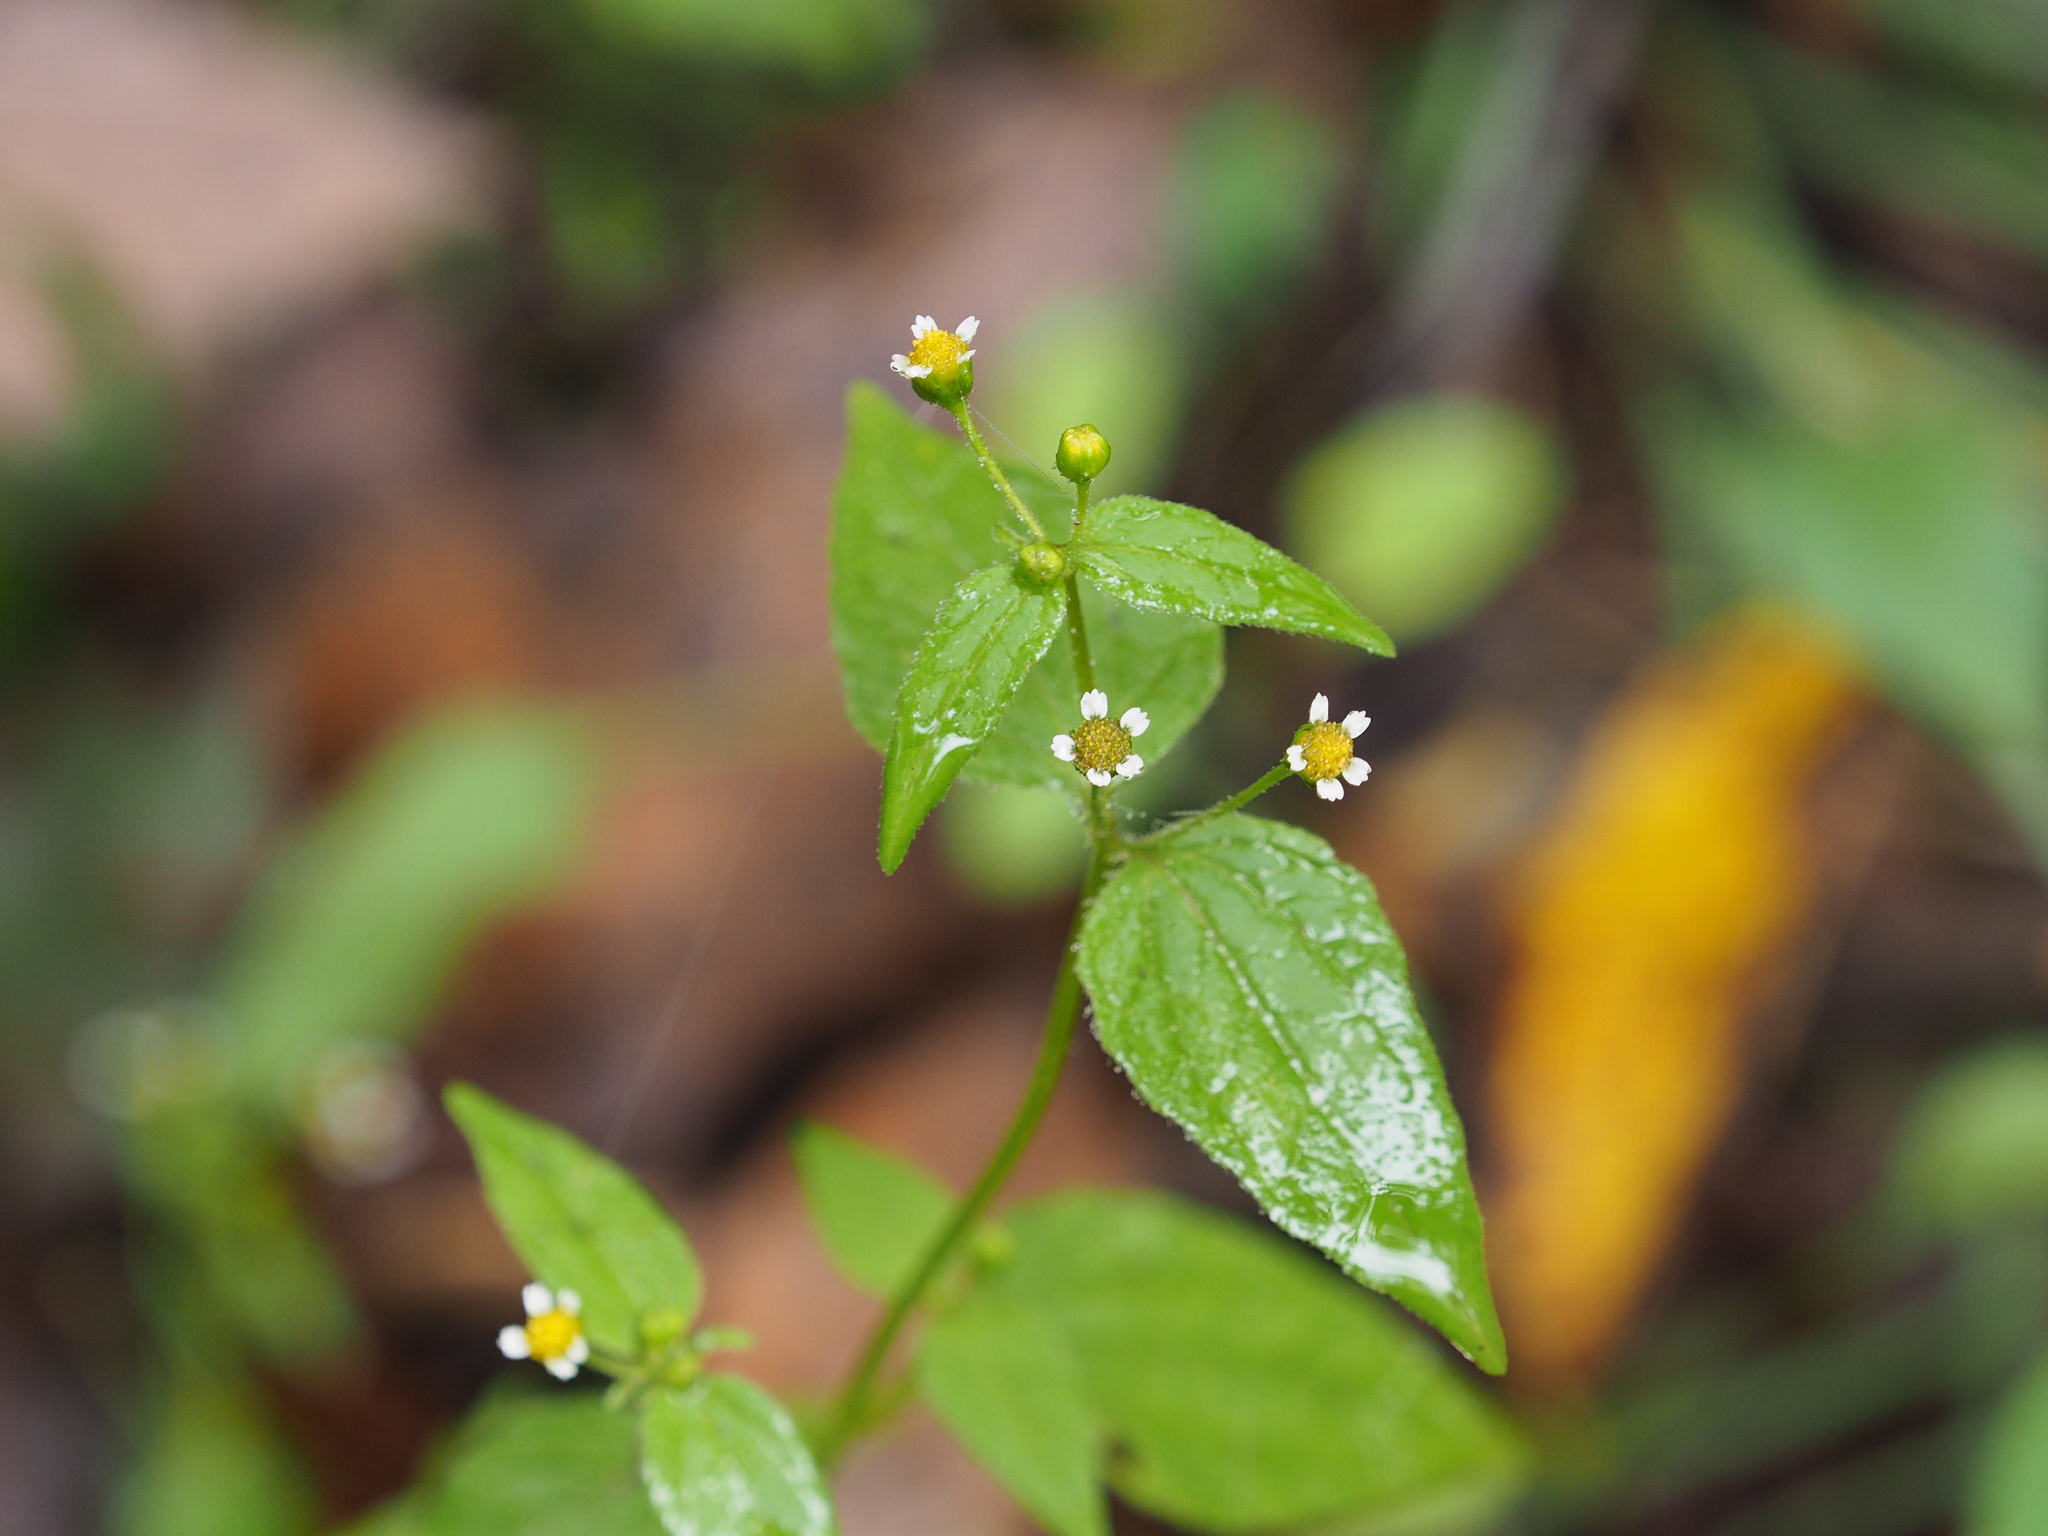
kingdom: Plantae
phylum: Tracheophyta
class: Magnoliopsida
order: Asterales
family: Asteraceae
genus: Galinsoga
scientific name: Galinsoga quadriradiata
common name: Shaggy soldier
